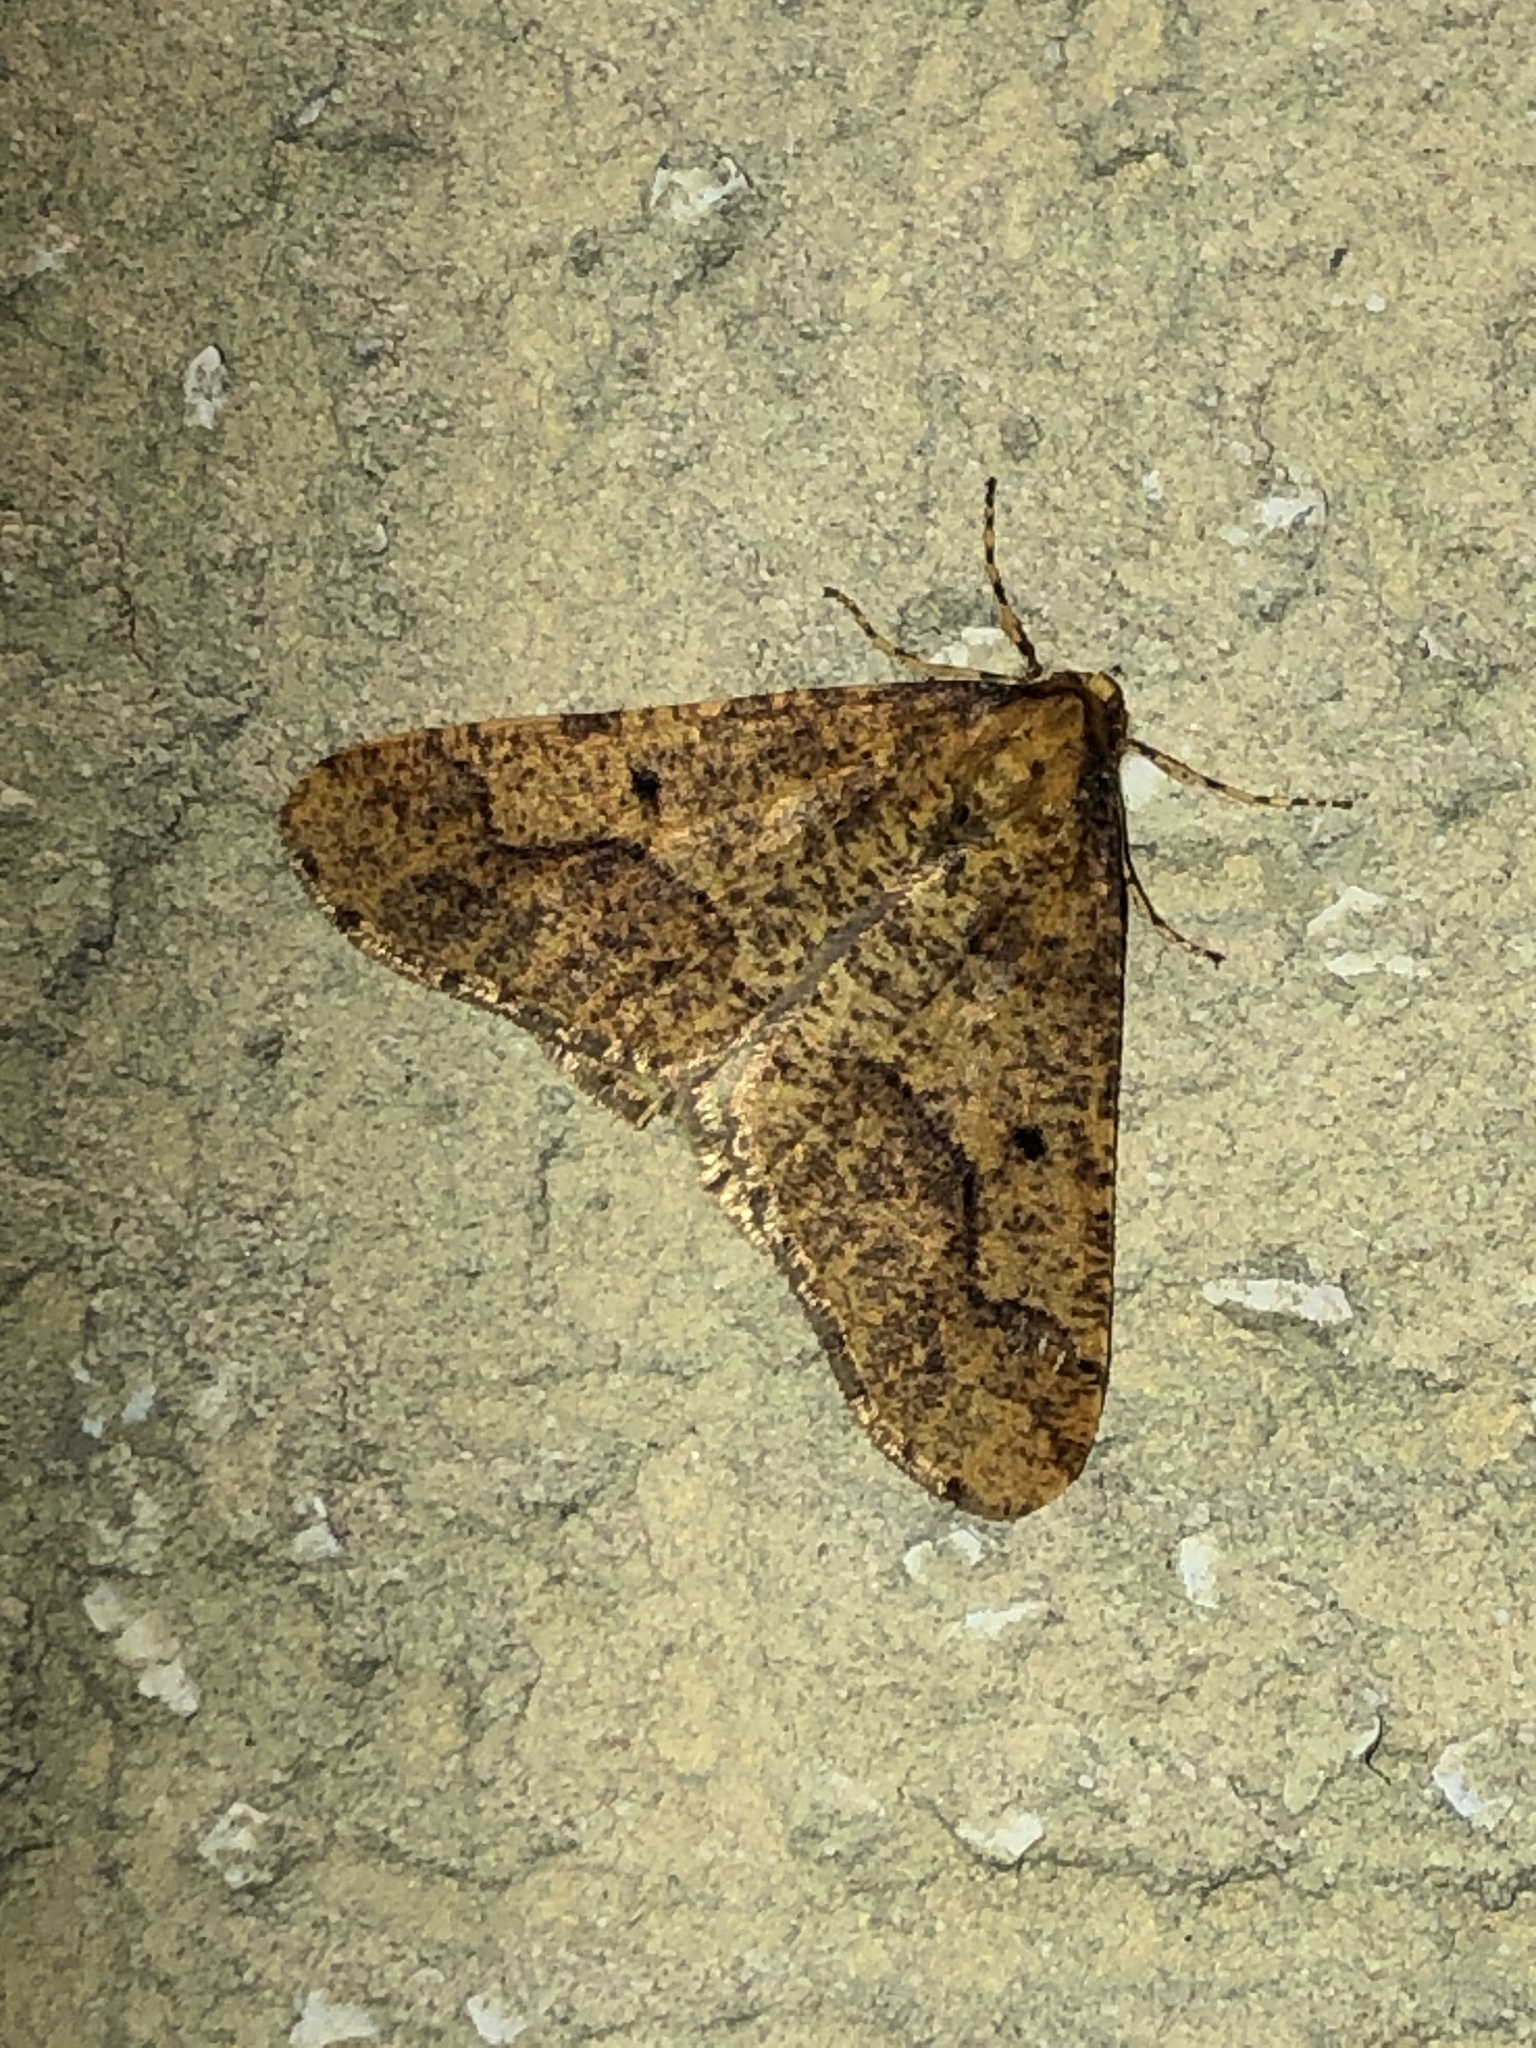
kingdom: Animalia
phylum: Arthropoda
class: Insecta
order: Lepidoptera
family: Geometridae
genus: Erannis
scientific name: Erannis defoliaria
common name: Mottled umber
